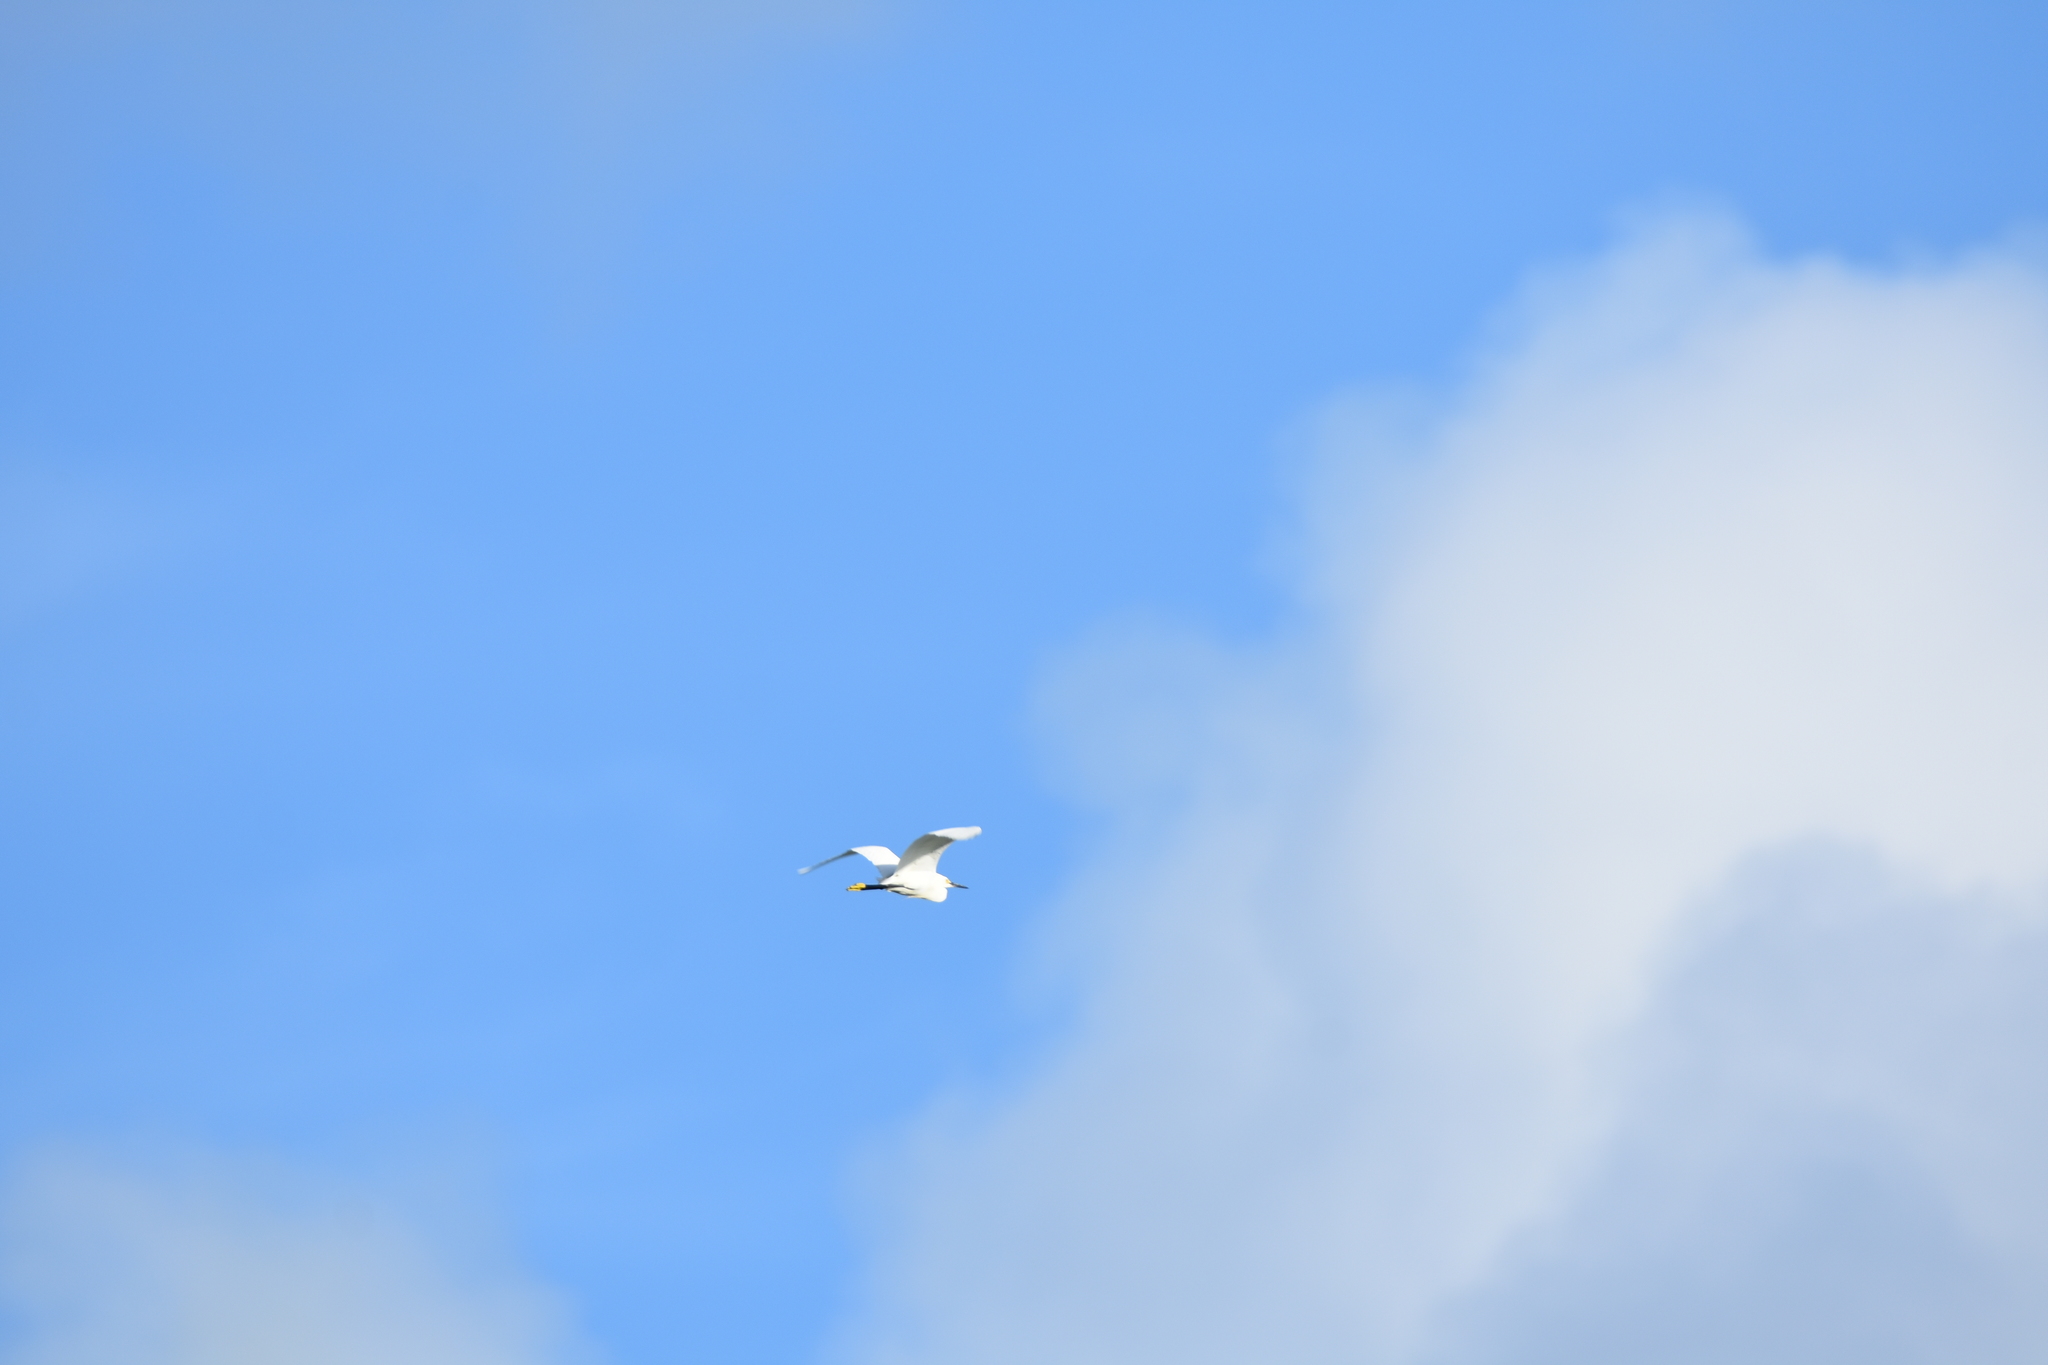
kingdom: Animalia
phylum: Chordata
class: Aves
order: Pelecaniformes
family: Ardeidae
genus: Egretta
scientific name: Egretta thula
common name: Snowy egret
